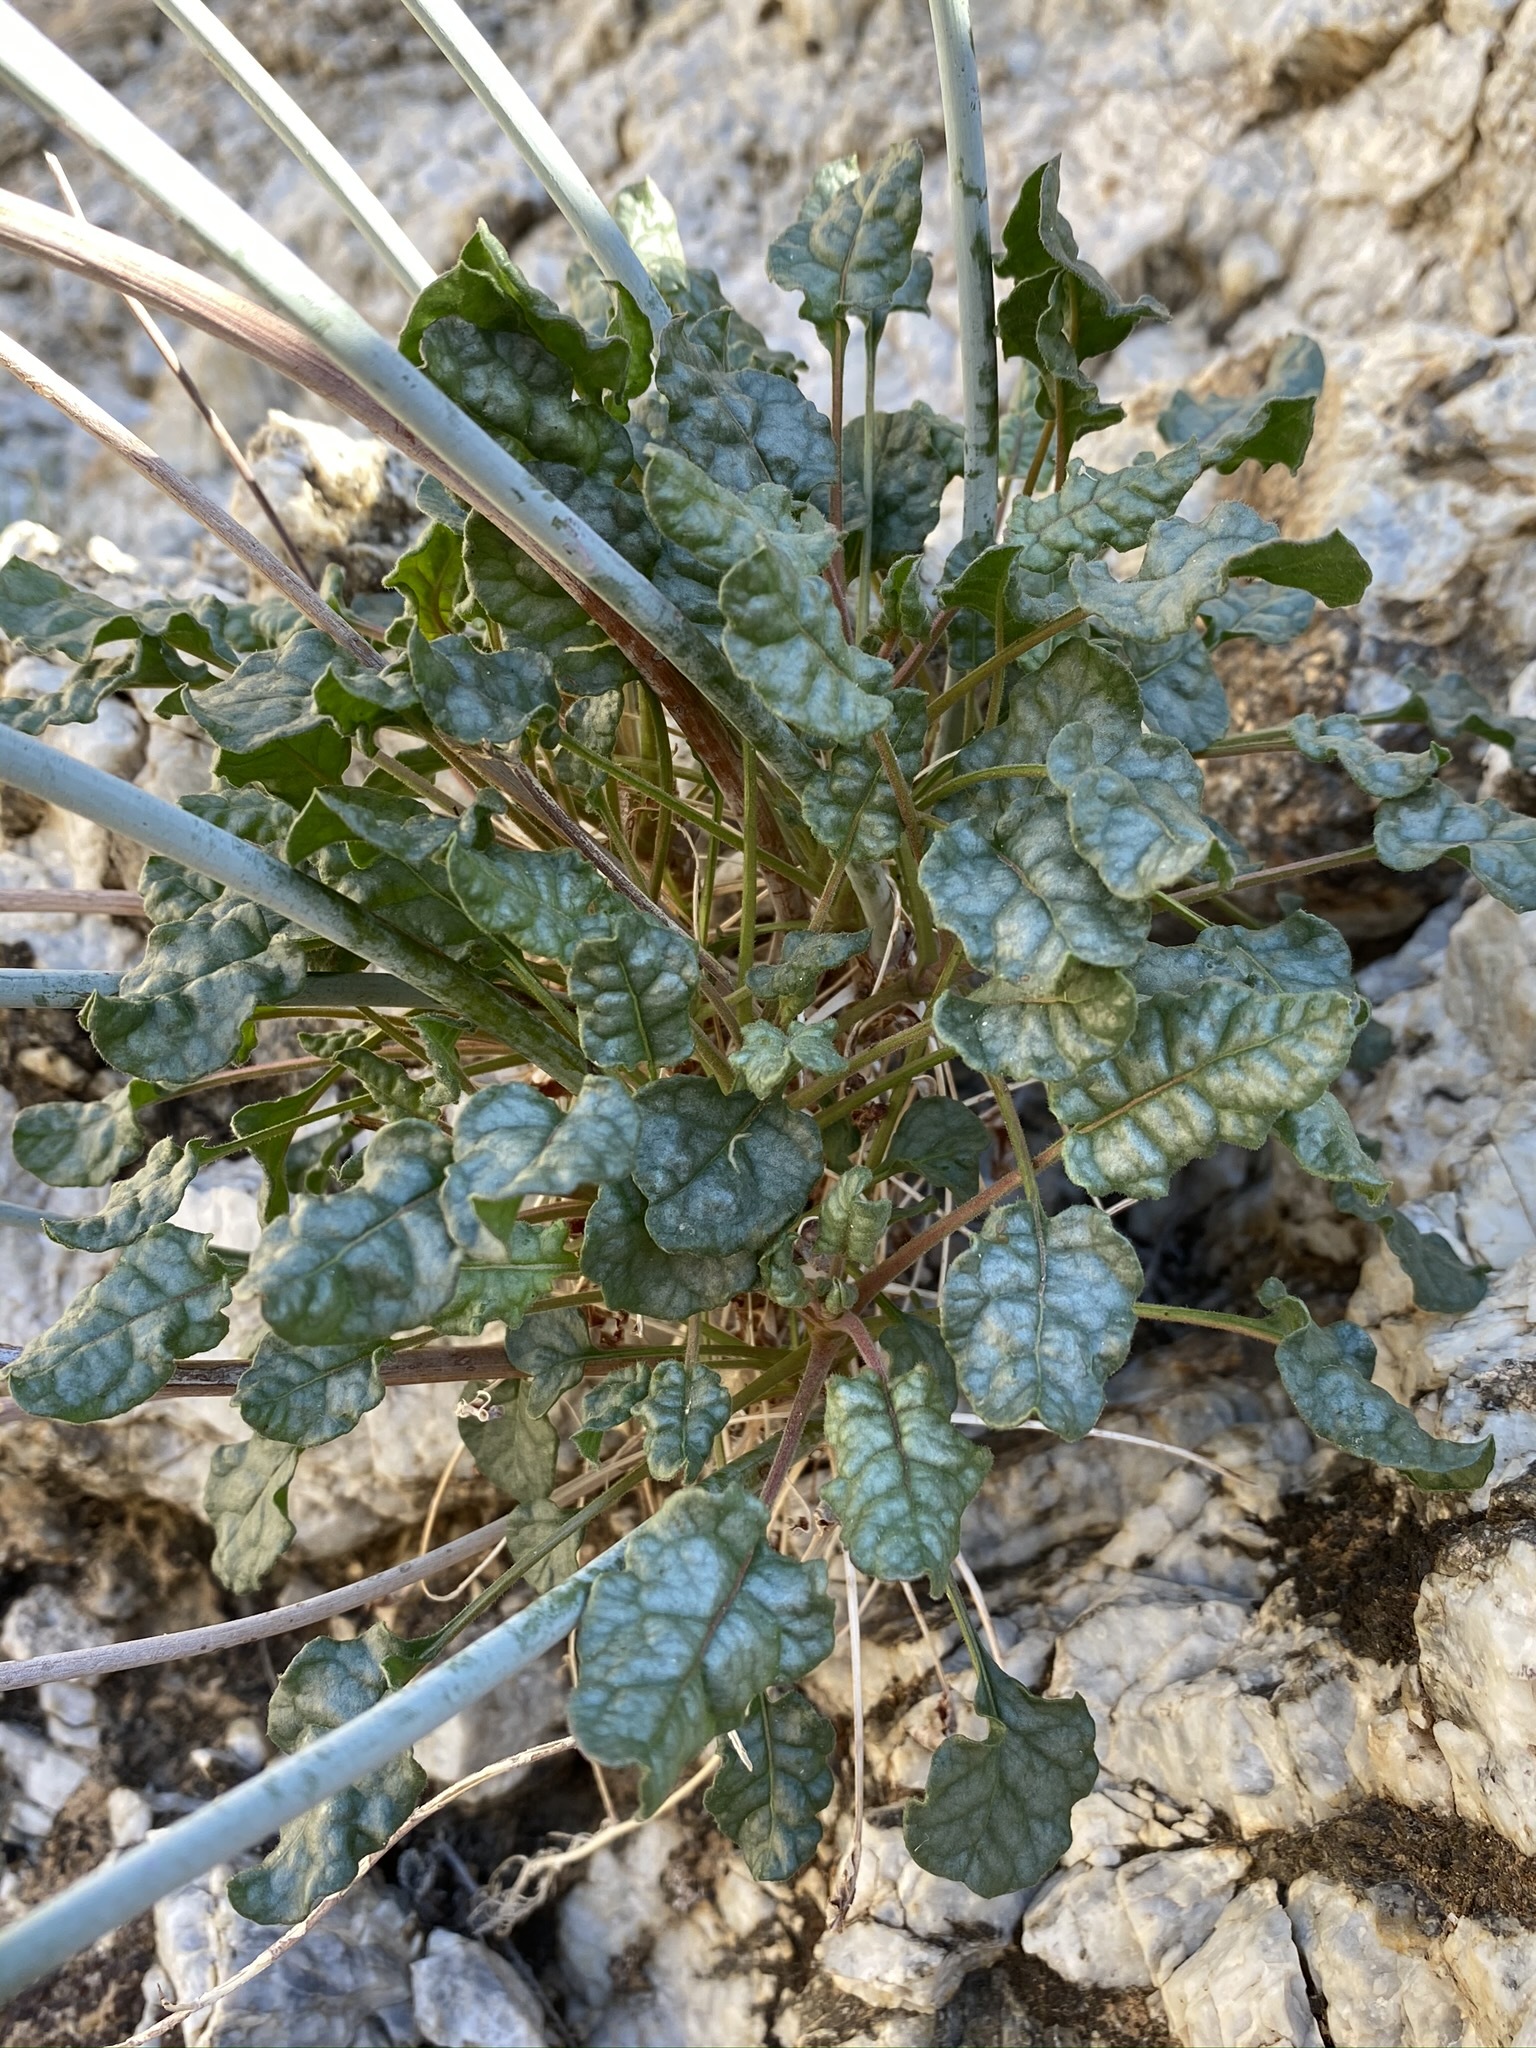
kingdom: Plantae
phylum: Tracheophyta
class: Magnoliopsida
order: Caryophyllales
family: Polygonaceae
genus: Eriogonum
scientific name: Eriogonum inflatum
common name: Desert trumpet
